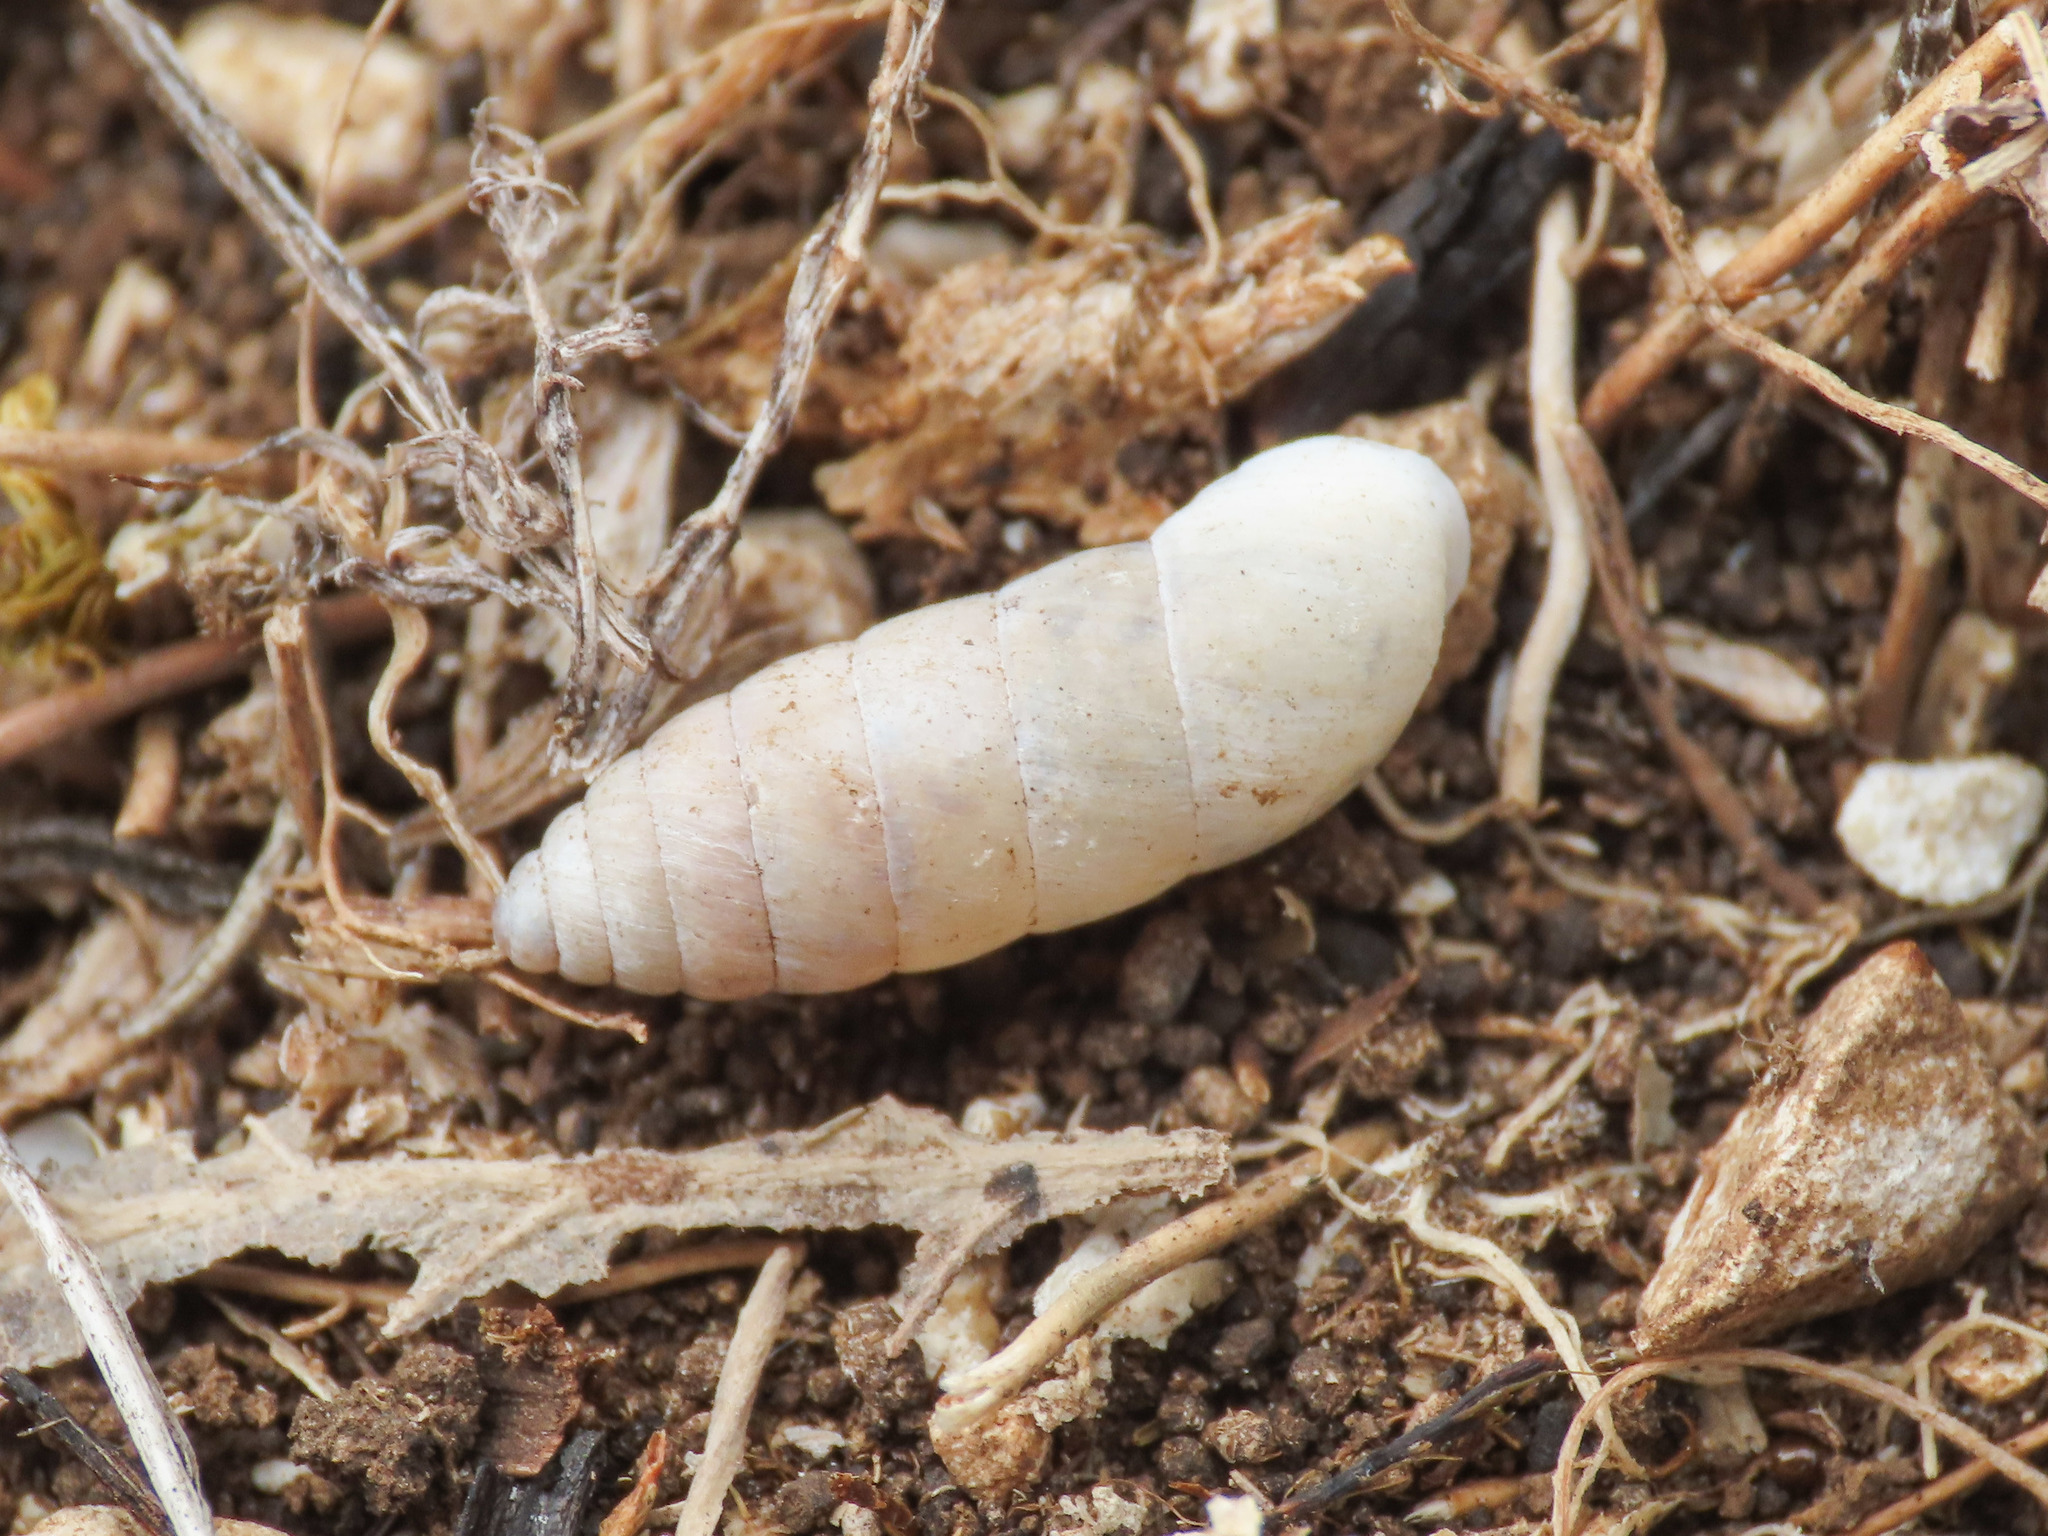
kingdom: Animalia
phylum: Mollusca
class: Gastropoda
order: Stylommatophora
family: Enidae
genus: Jaminia
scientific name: Jaminia quadridens
